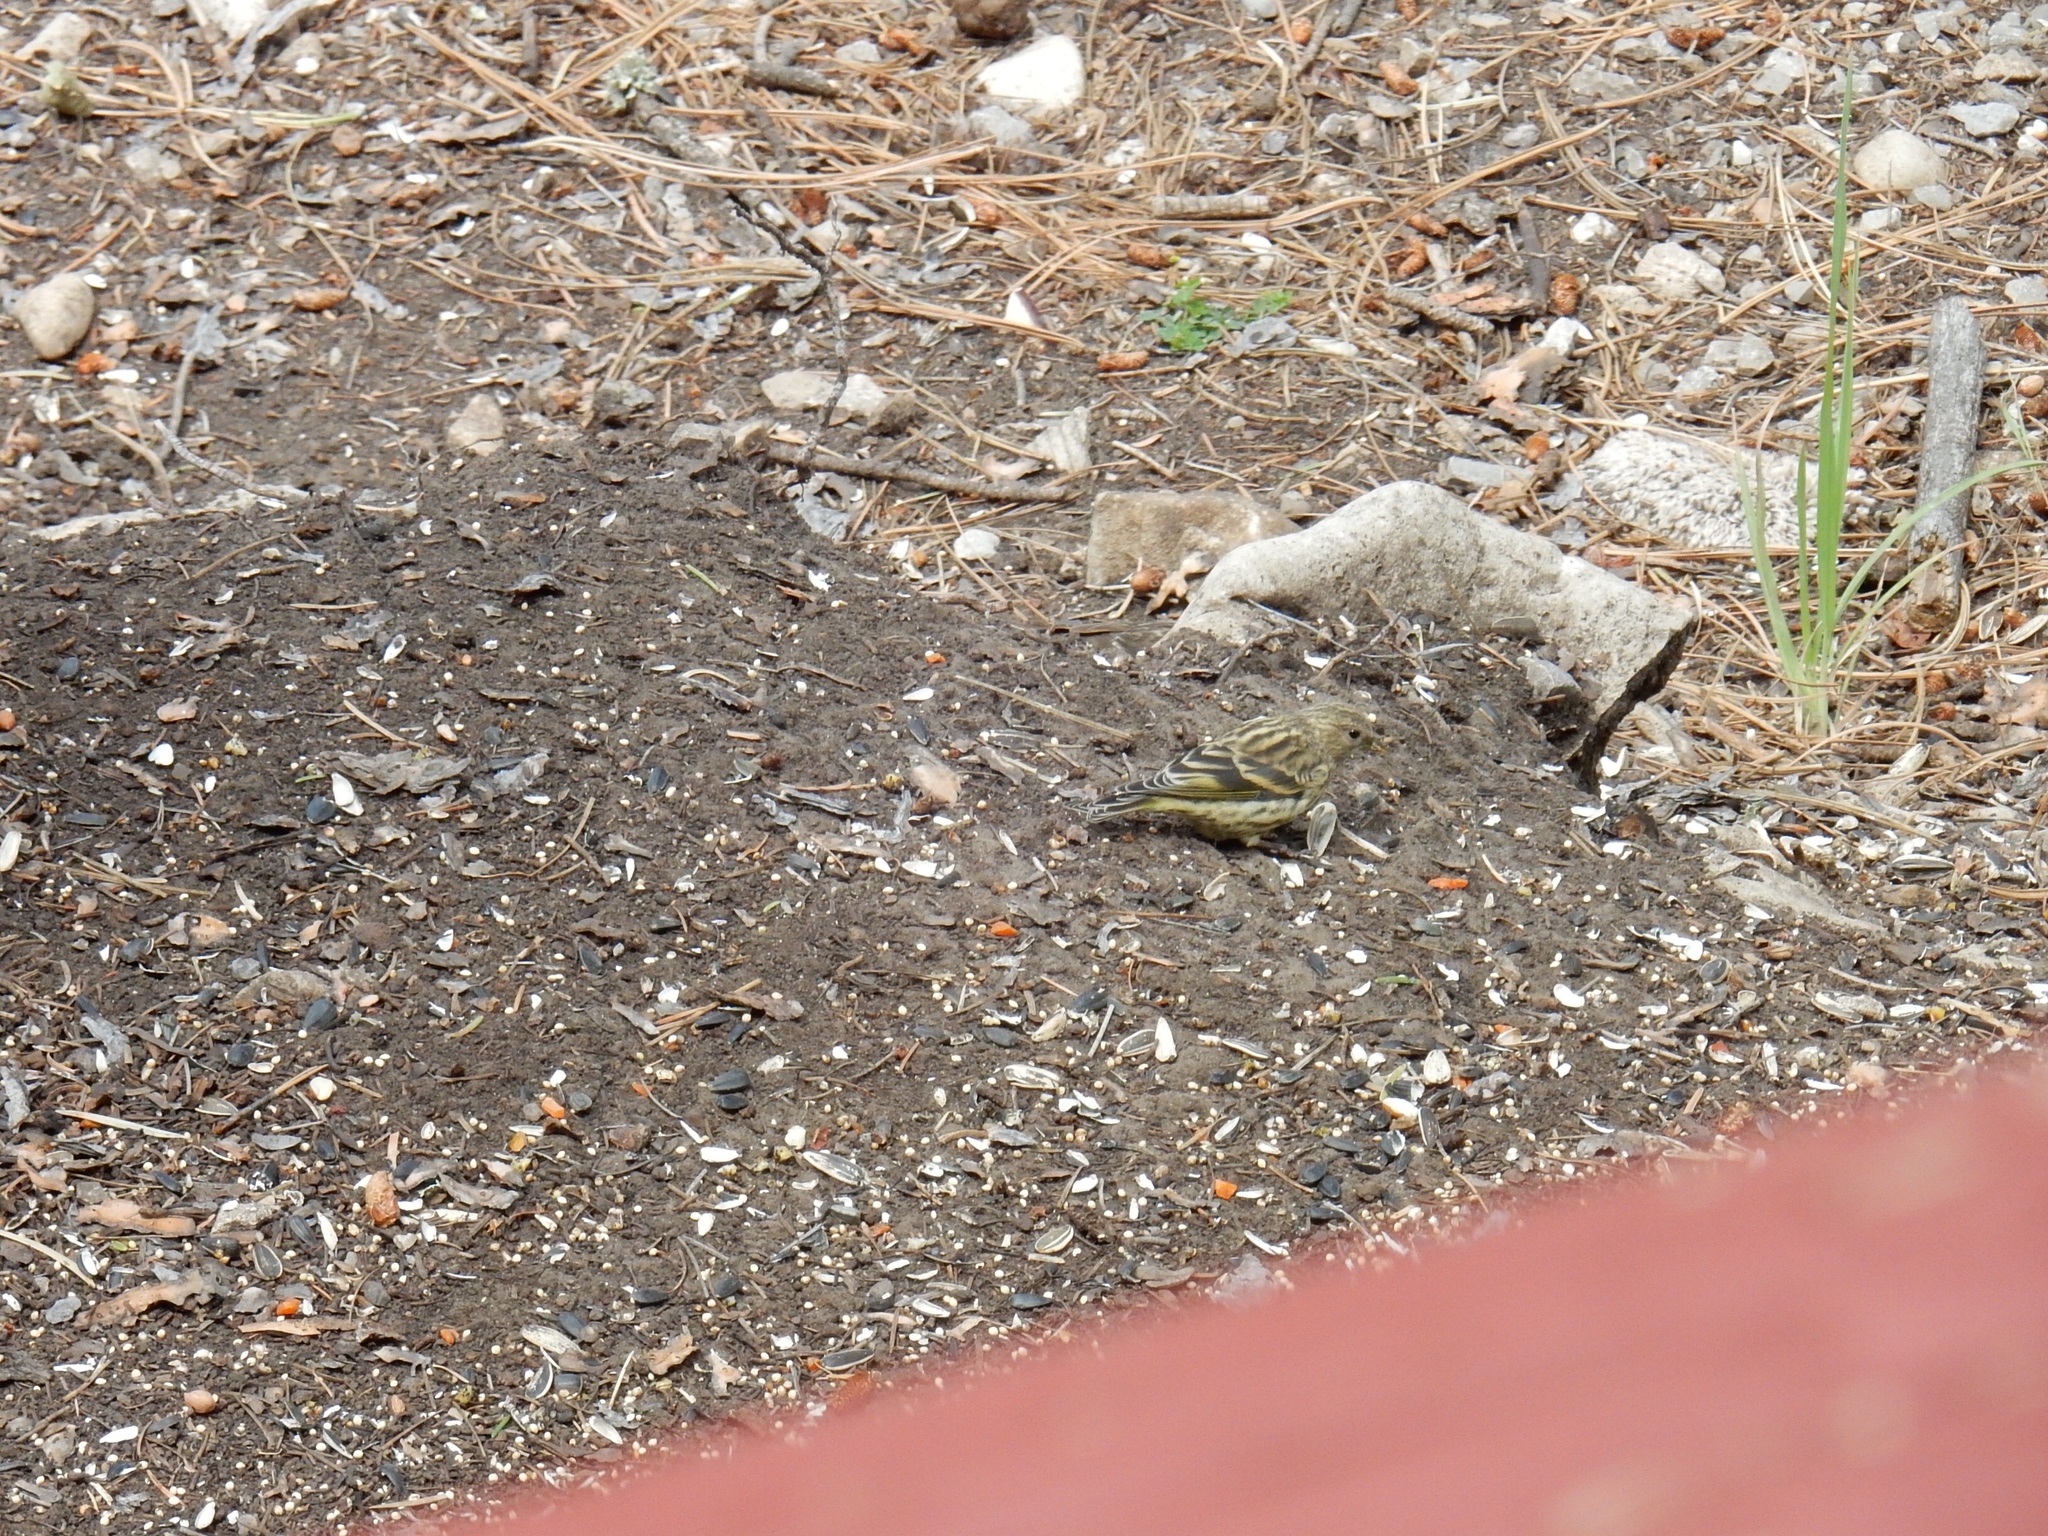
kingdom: Animalia
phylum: Chordata
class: Aves
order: Passeriformes
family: Fringillidae
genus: Spinus
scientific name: Spinus pinus
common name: Pine siskin
